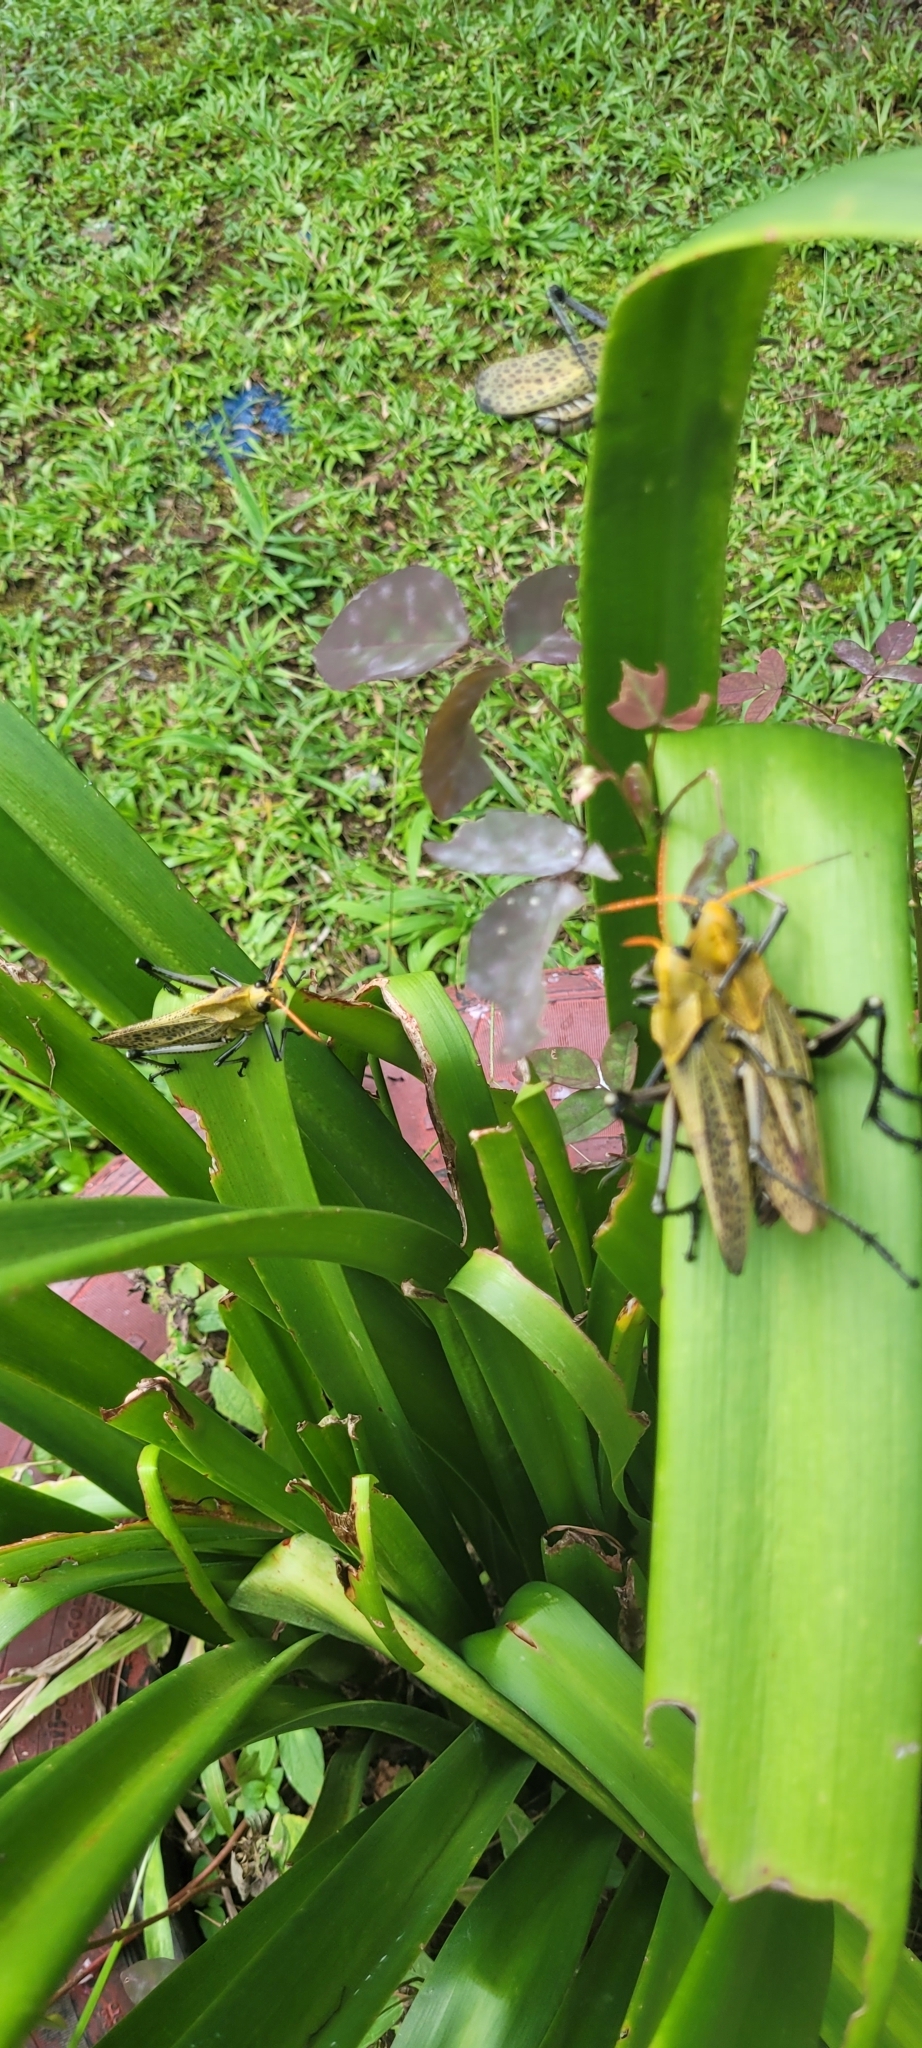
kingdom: Animalia
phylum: Arthropoda
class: Insecta
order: Orthoptera
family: Romaleidae
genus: Romalea
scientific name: Romalea
